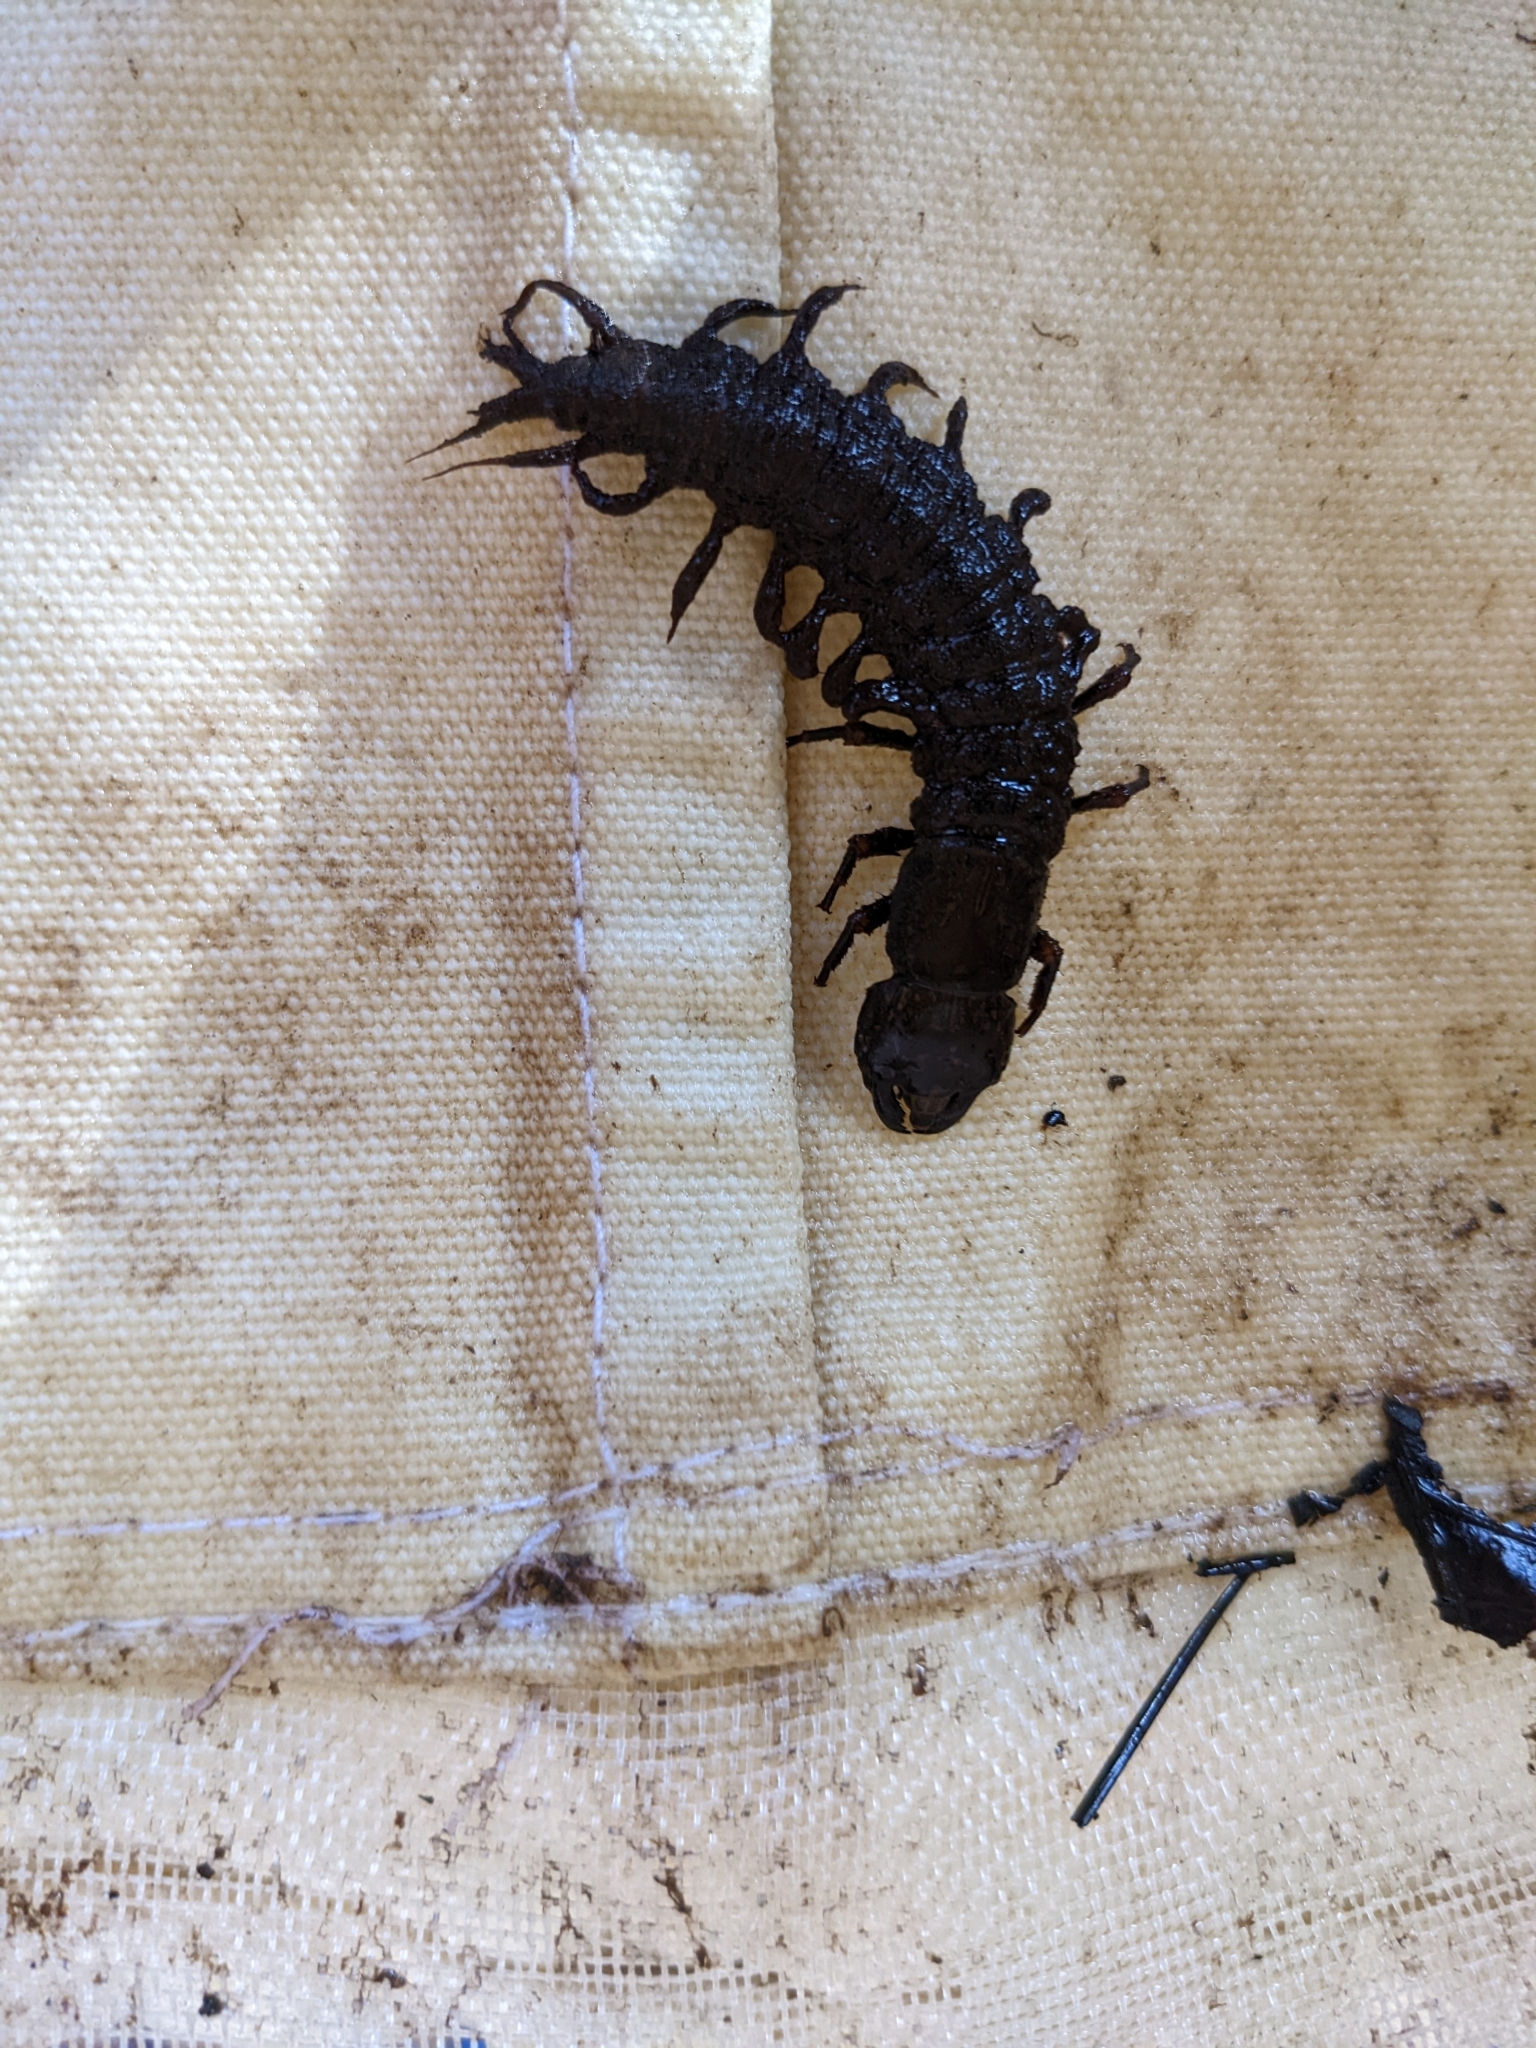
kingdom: Animalia
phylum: Arthropoda
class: Insecta
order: Megaloptera
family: Corydalidae
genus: Corydalus
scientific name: Corydalus cornutus
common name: Dobsonfly
